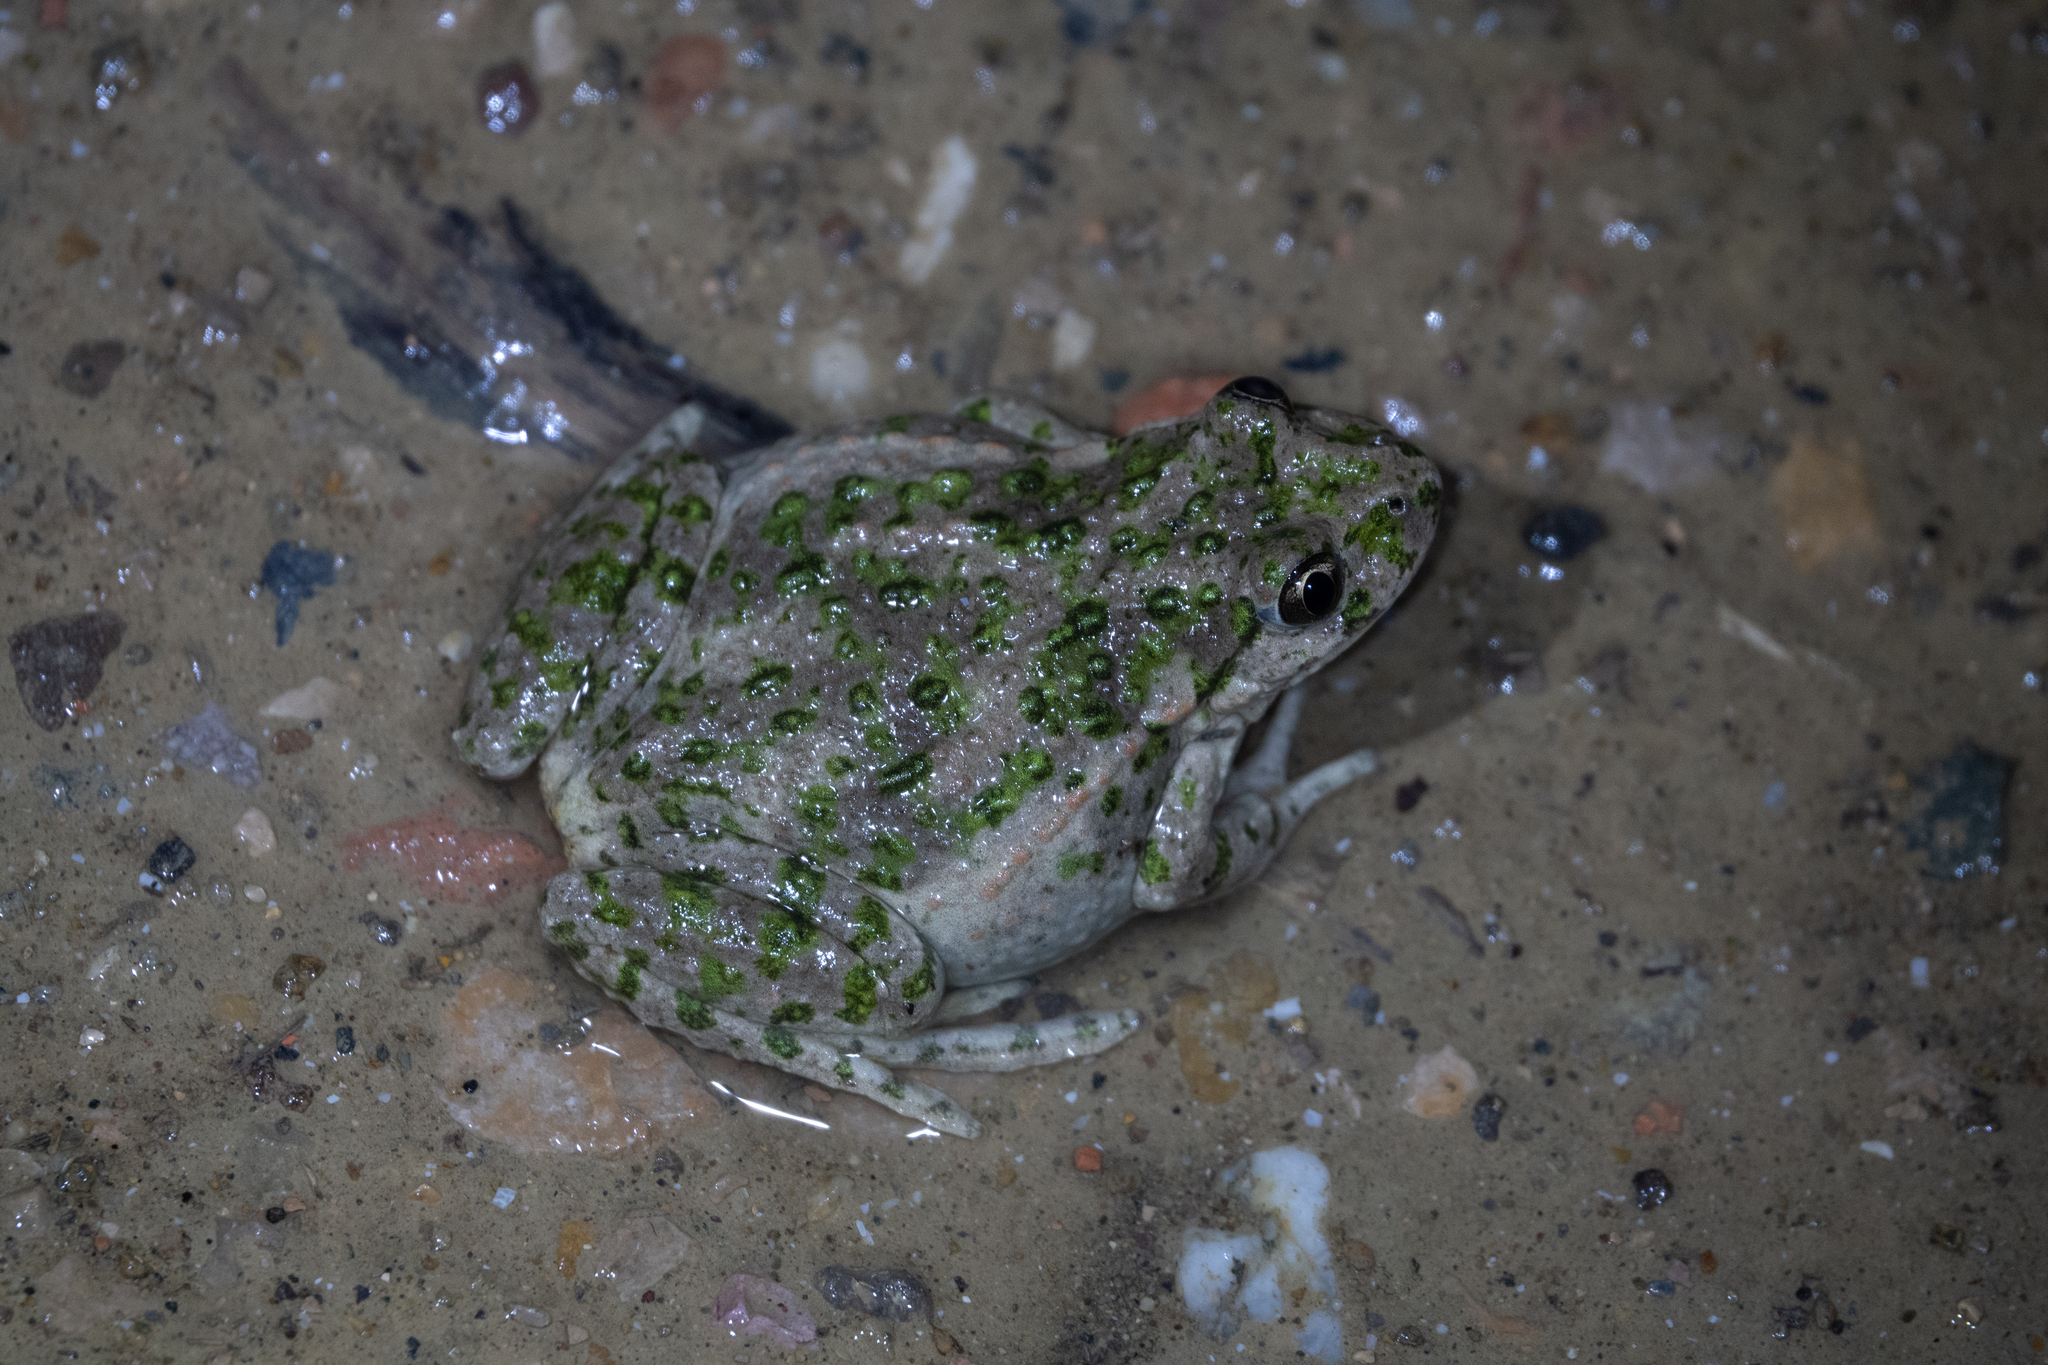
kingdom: Animalia
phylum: Chordata
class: Amphibia
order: Anura
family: Pelodytidae
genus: Pelodytes
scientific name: Pelodytes punctatus
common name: Parsley frog
